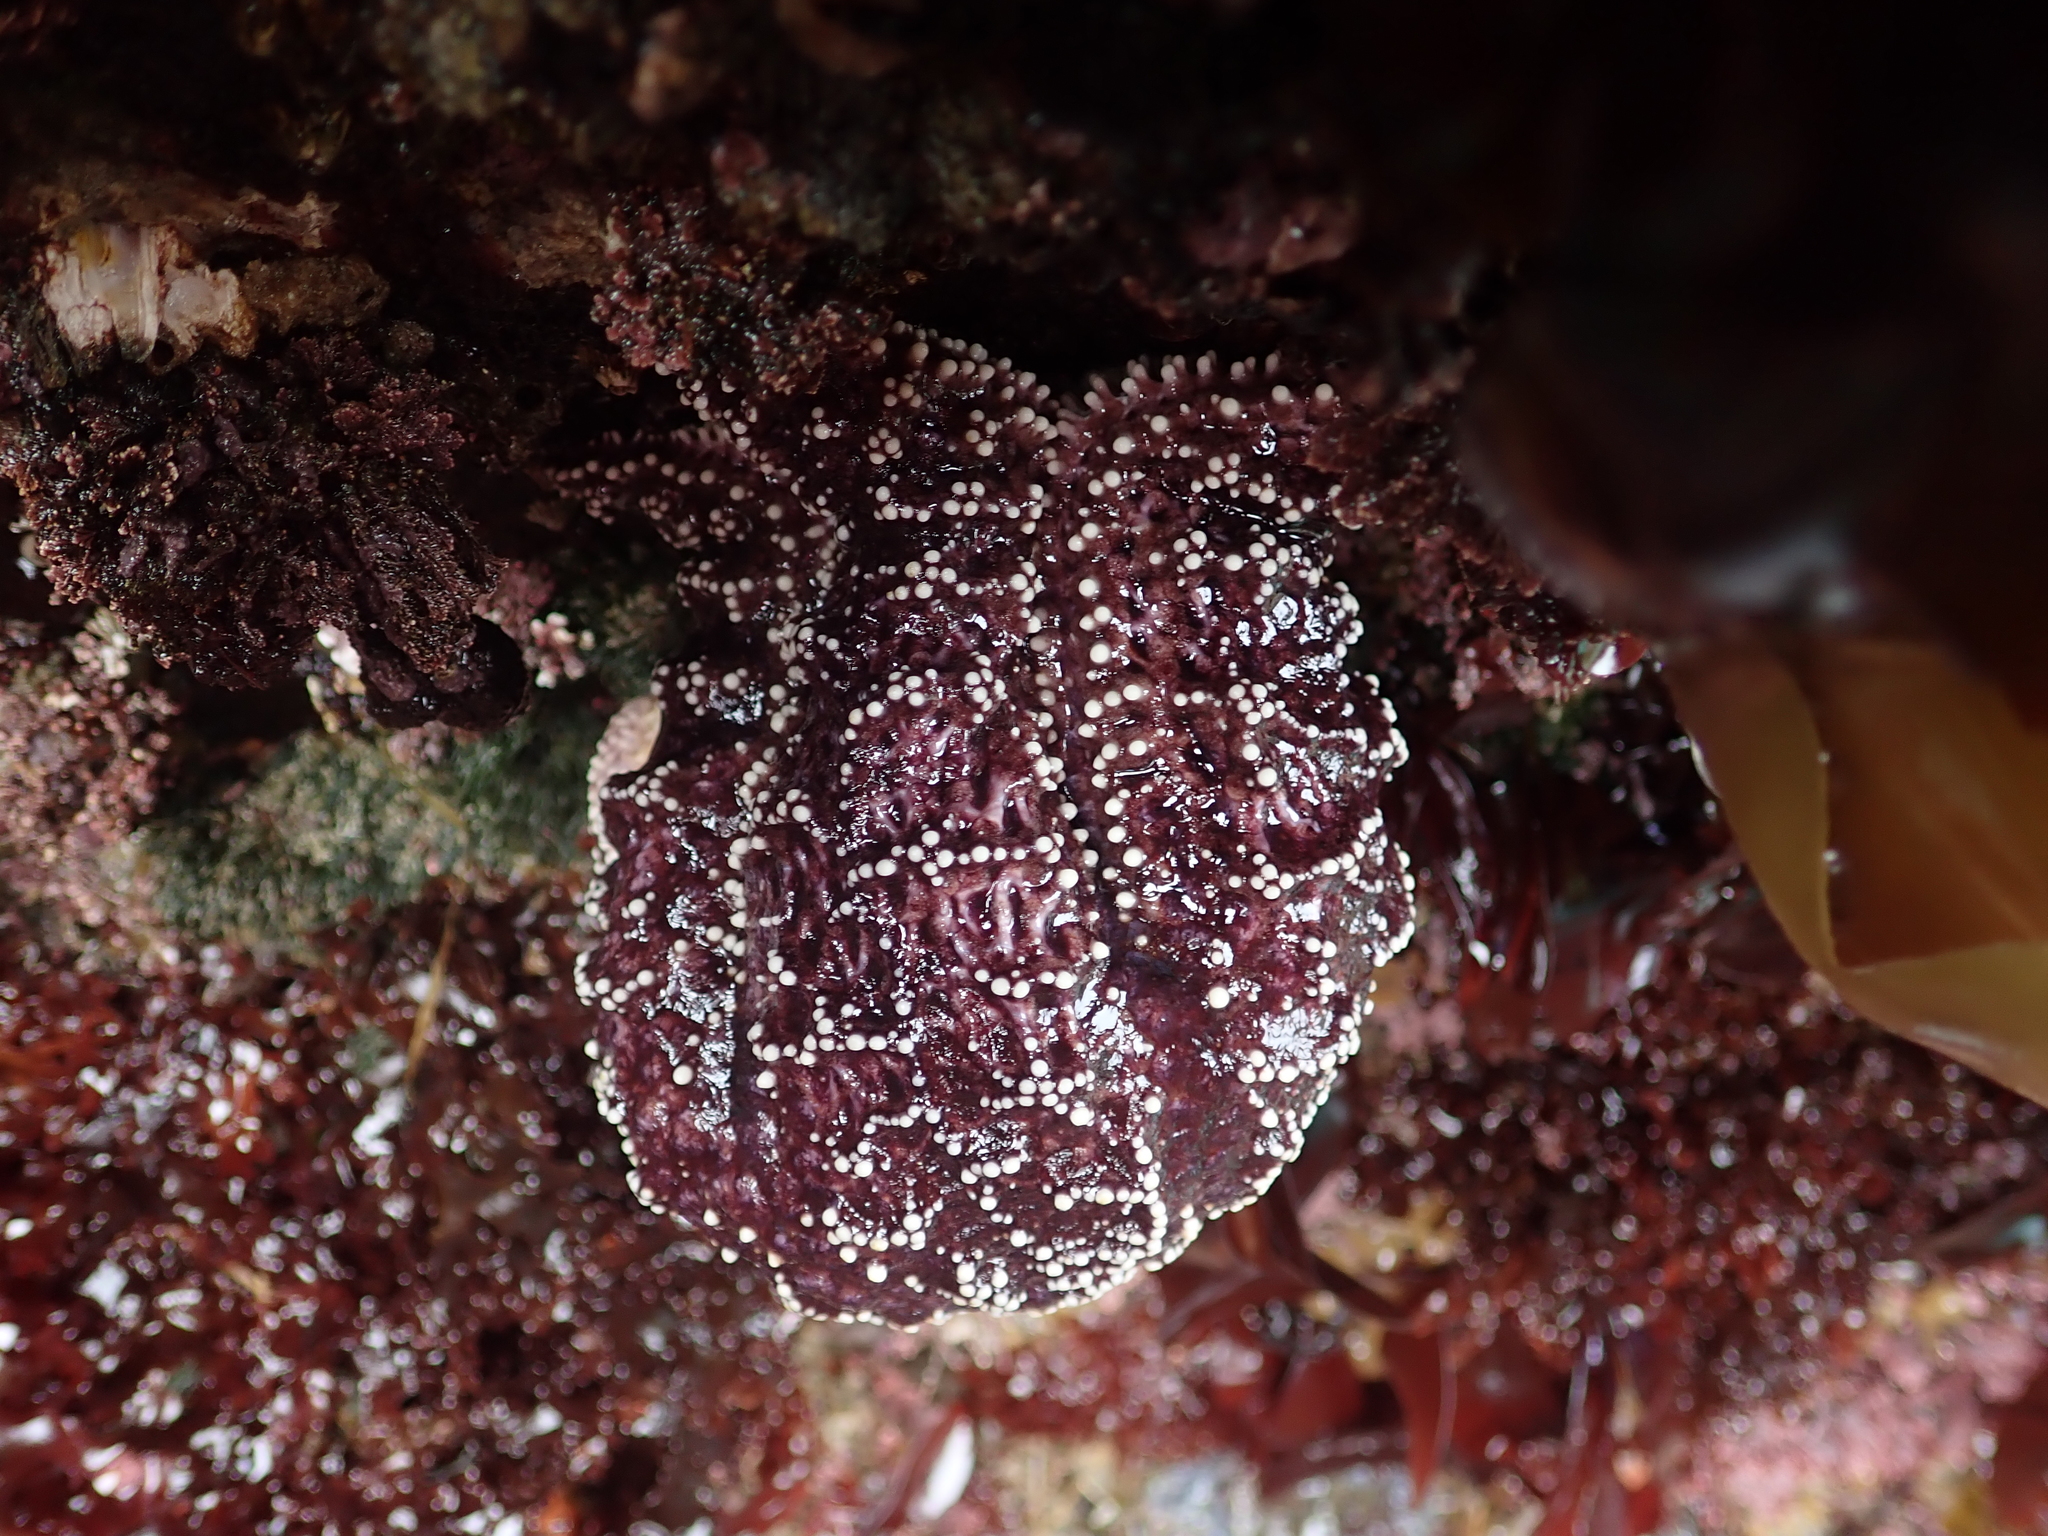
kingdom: Animalia
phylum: Echinodermata
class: Asteroidea
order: Forcipulatida
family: Asteriidae
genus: Pisaster
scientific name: Pisaster ochraceus
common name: Ochre stars
